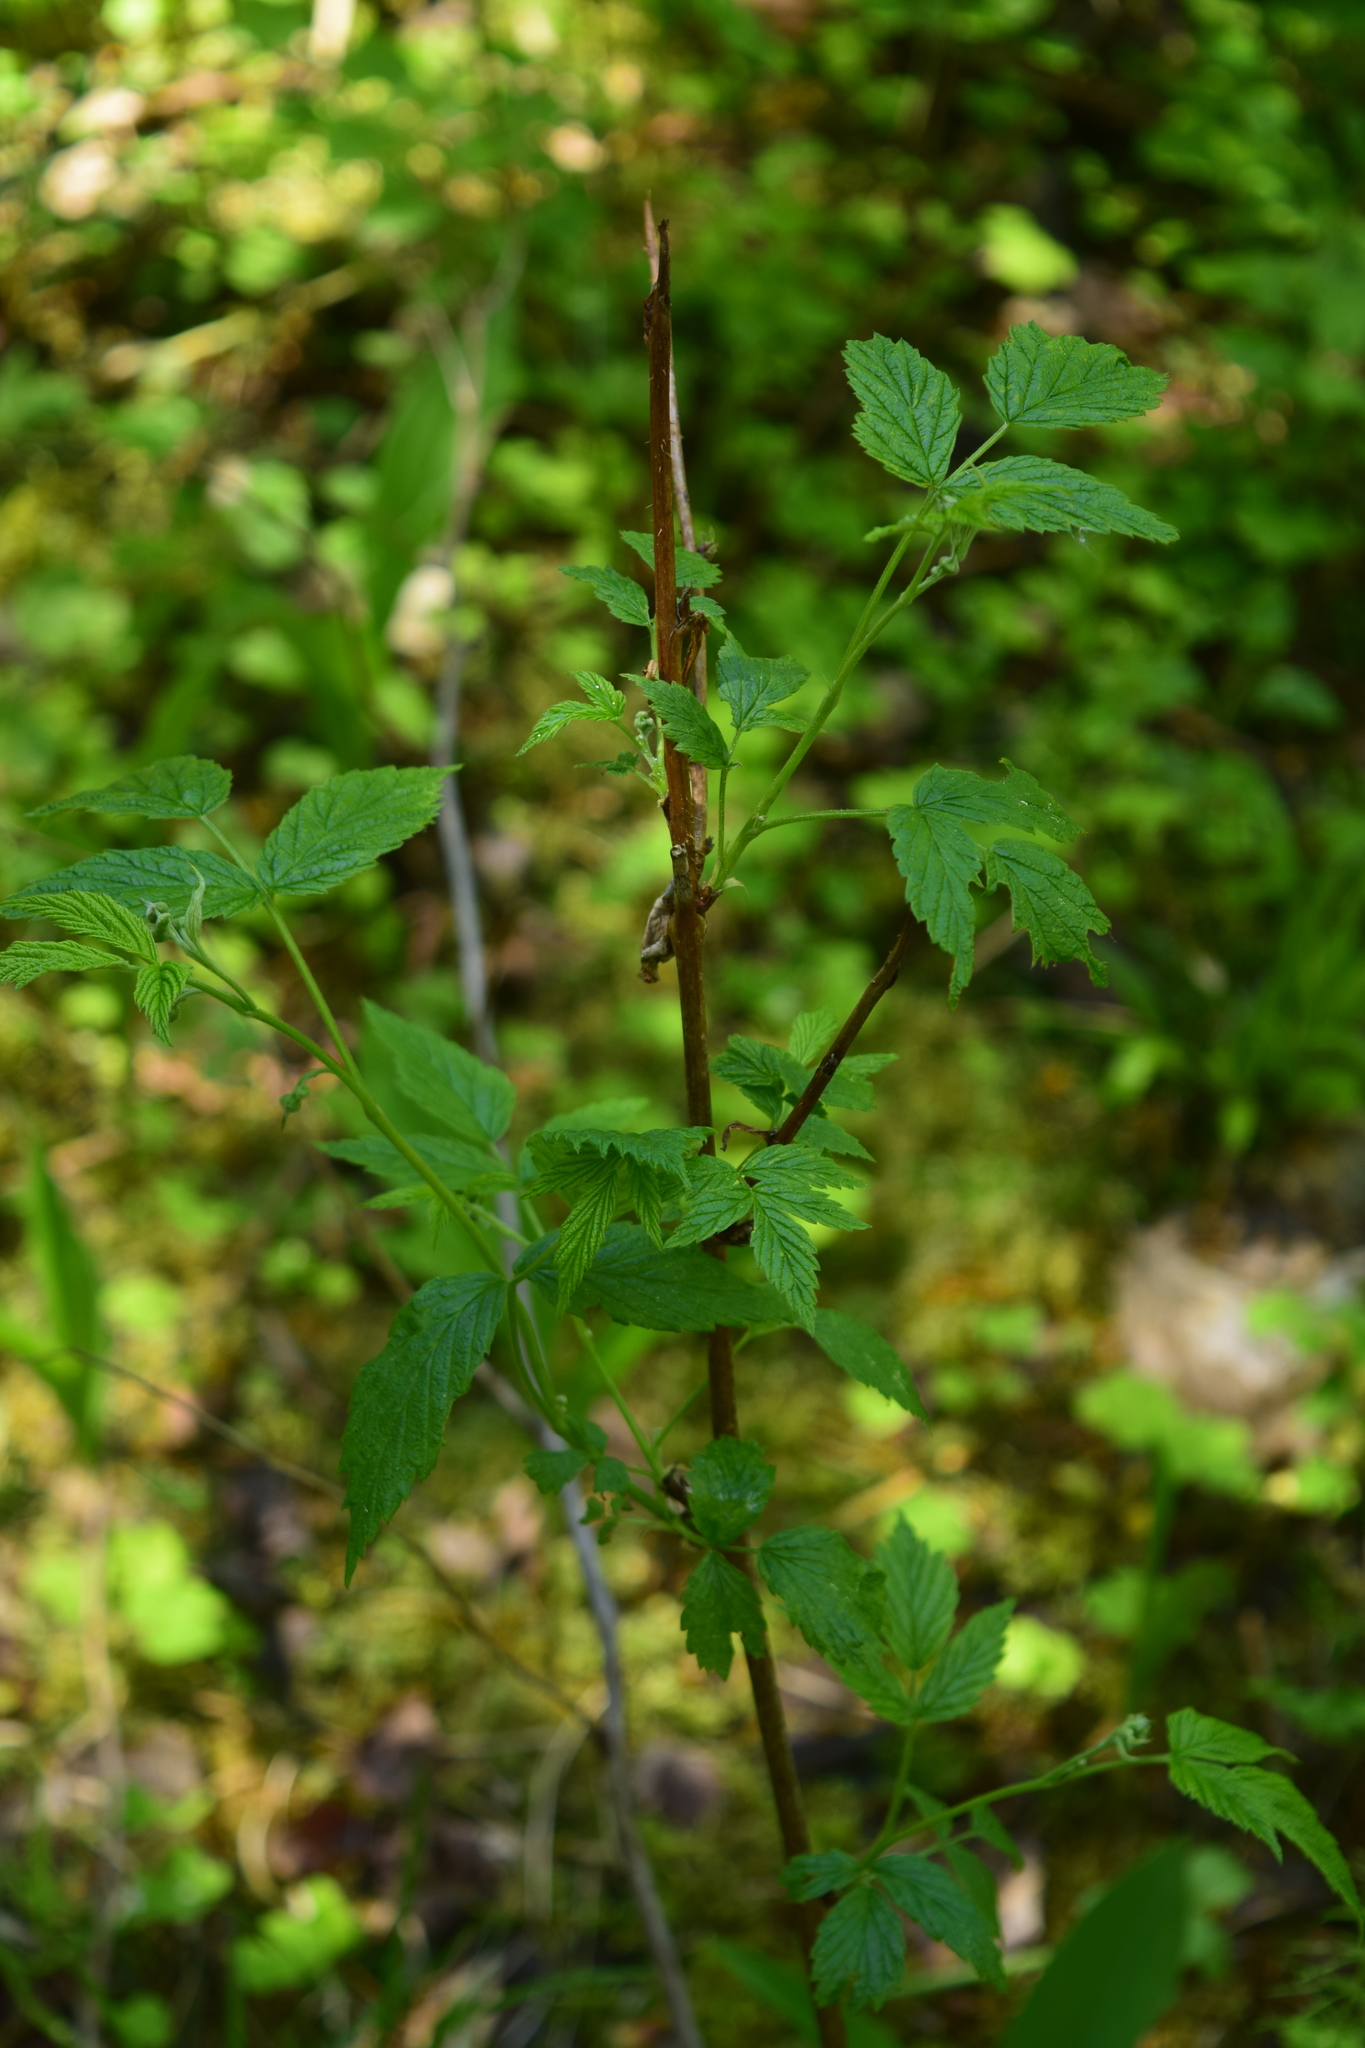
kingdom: Plantae
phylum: Tracheophyta
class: Magnoliopsida
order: Rosales
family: Rosaceae
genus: Rubus
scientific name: Rubus idaeus
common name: Raspberry
